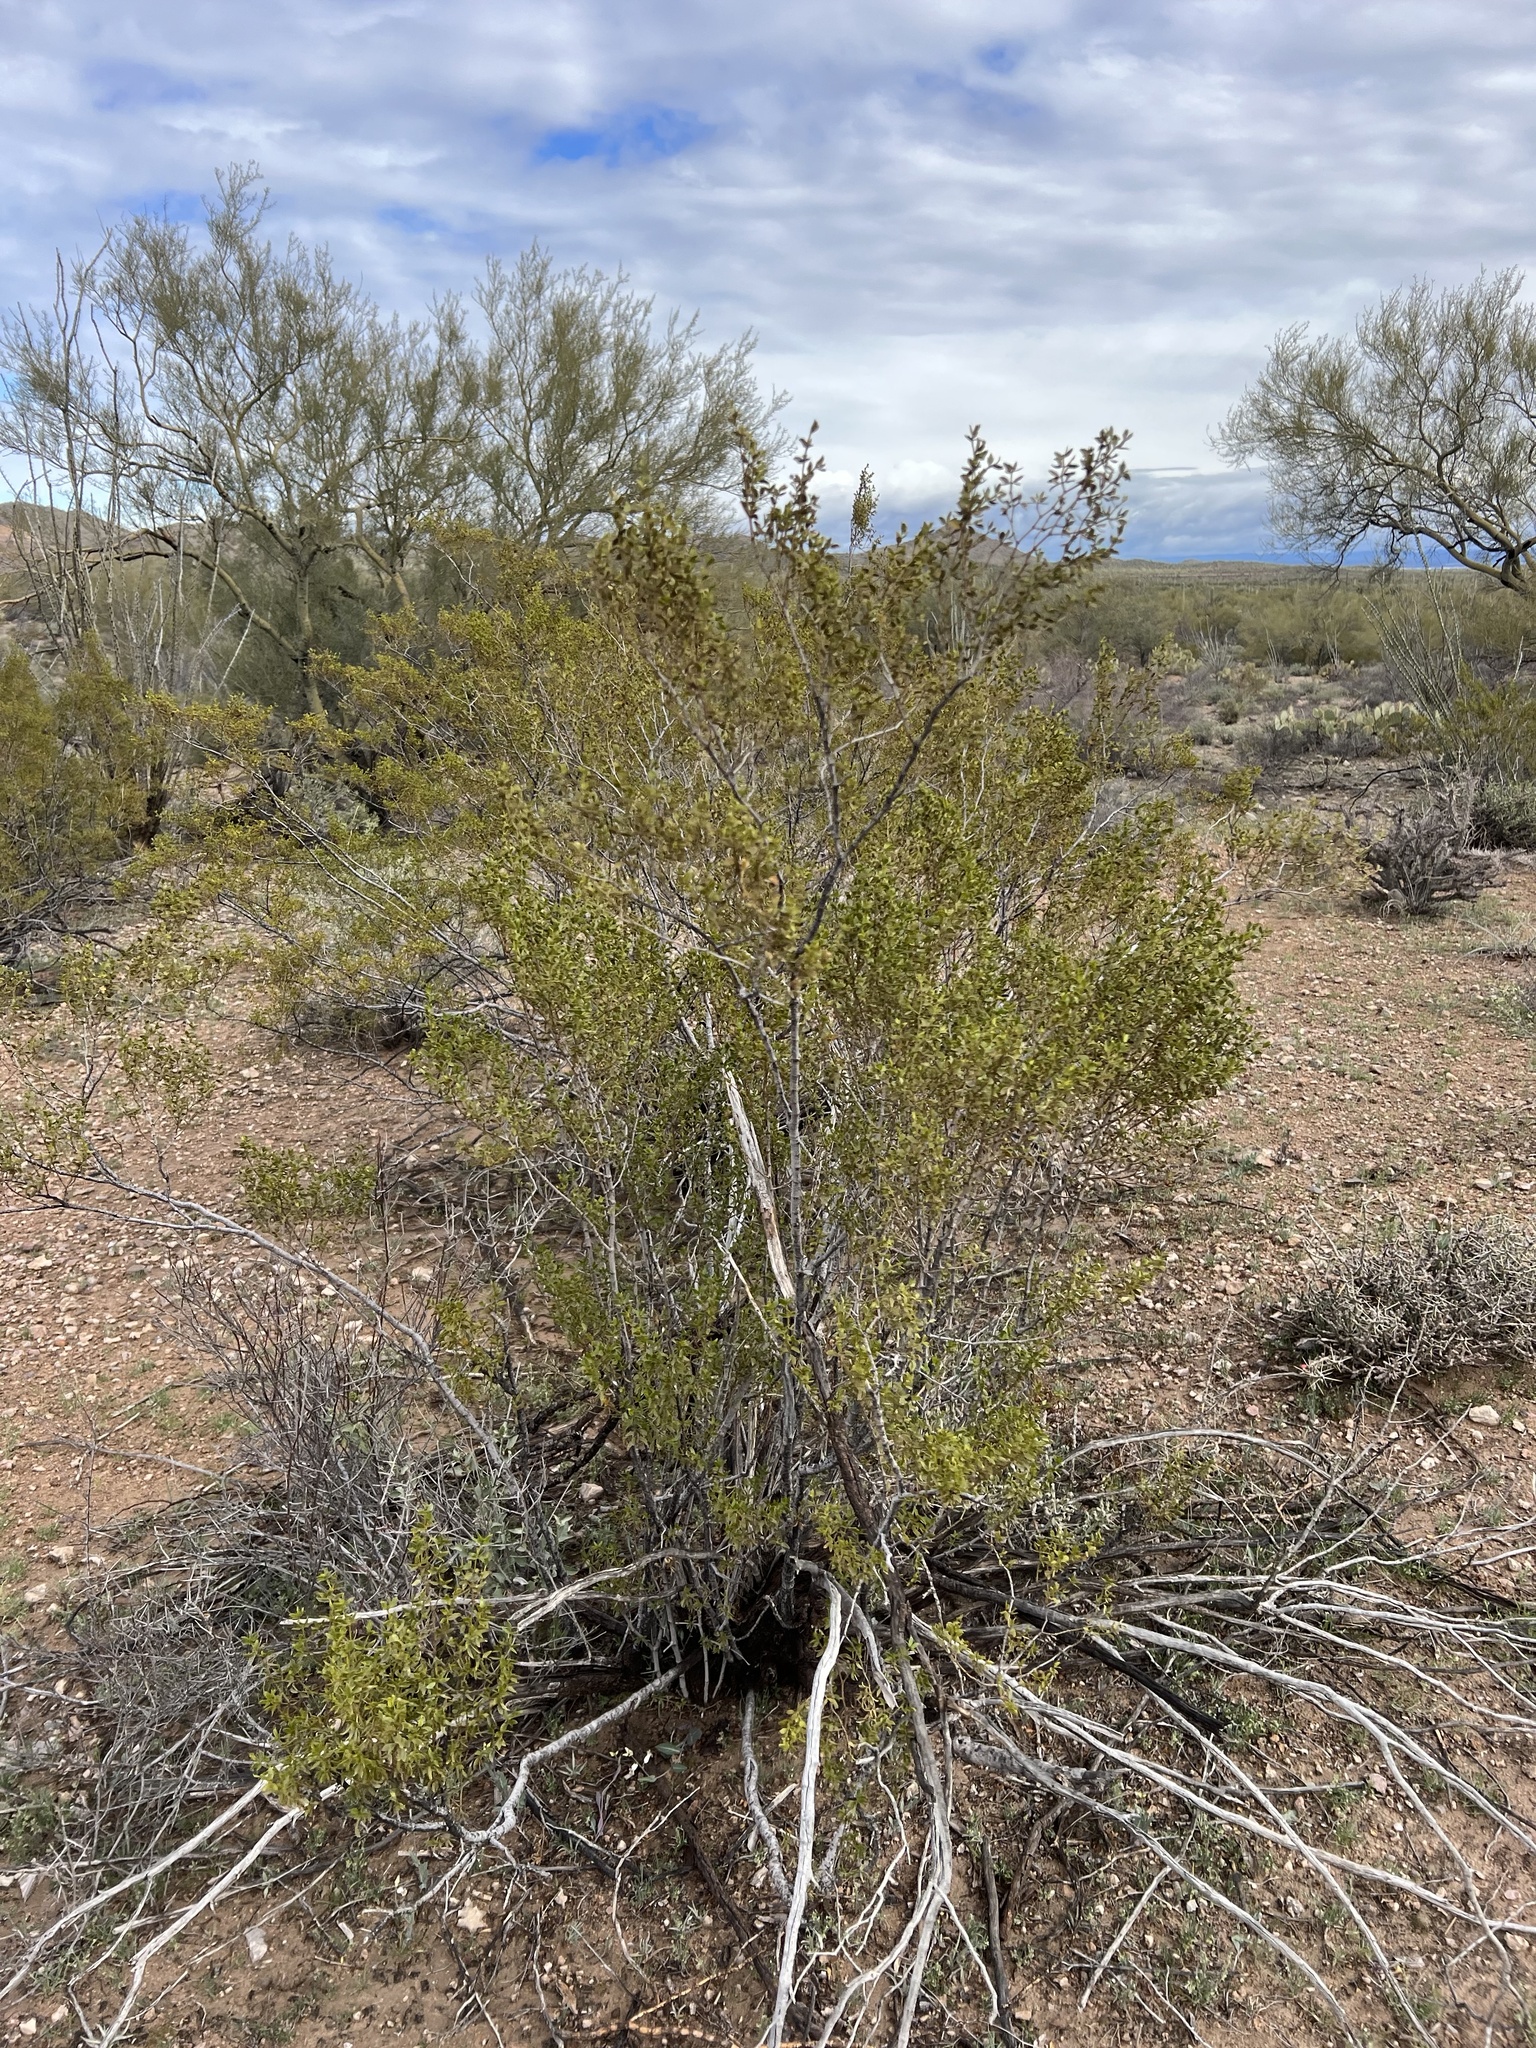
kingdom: Plantae
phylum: Tracheophyta
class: Magnoliopsida
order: Zygophyllales
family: Zygophyllaceae
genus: Larrea
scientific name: Larrea tridentata
